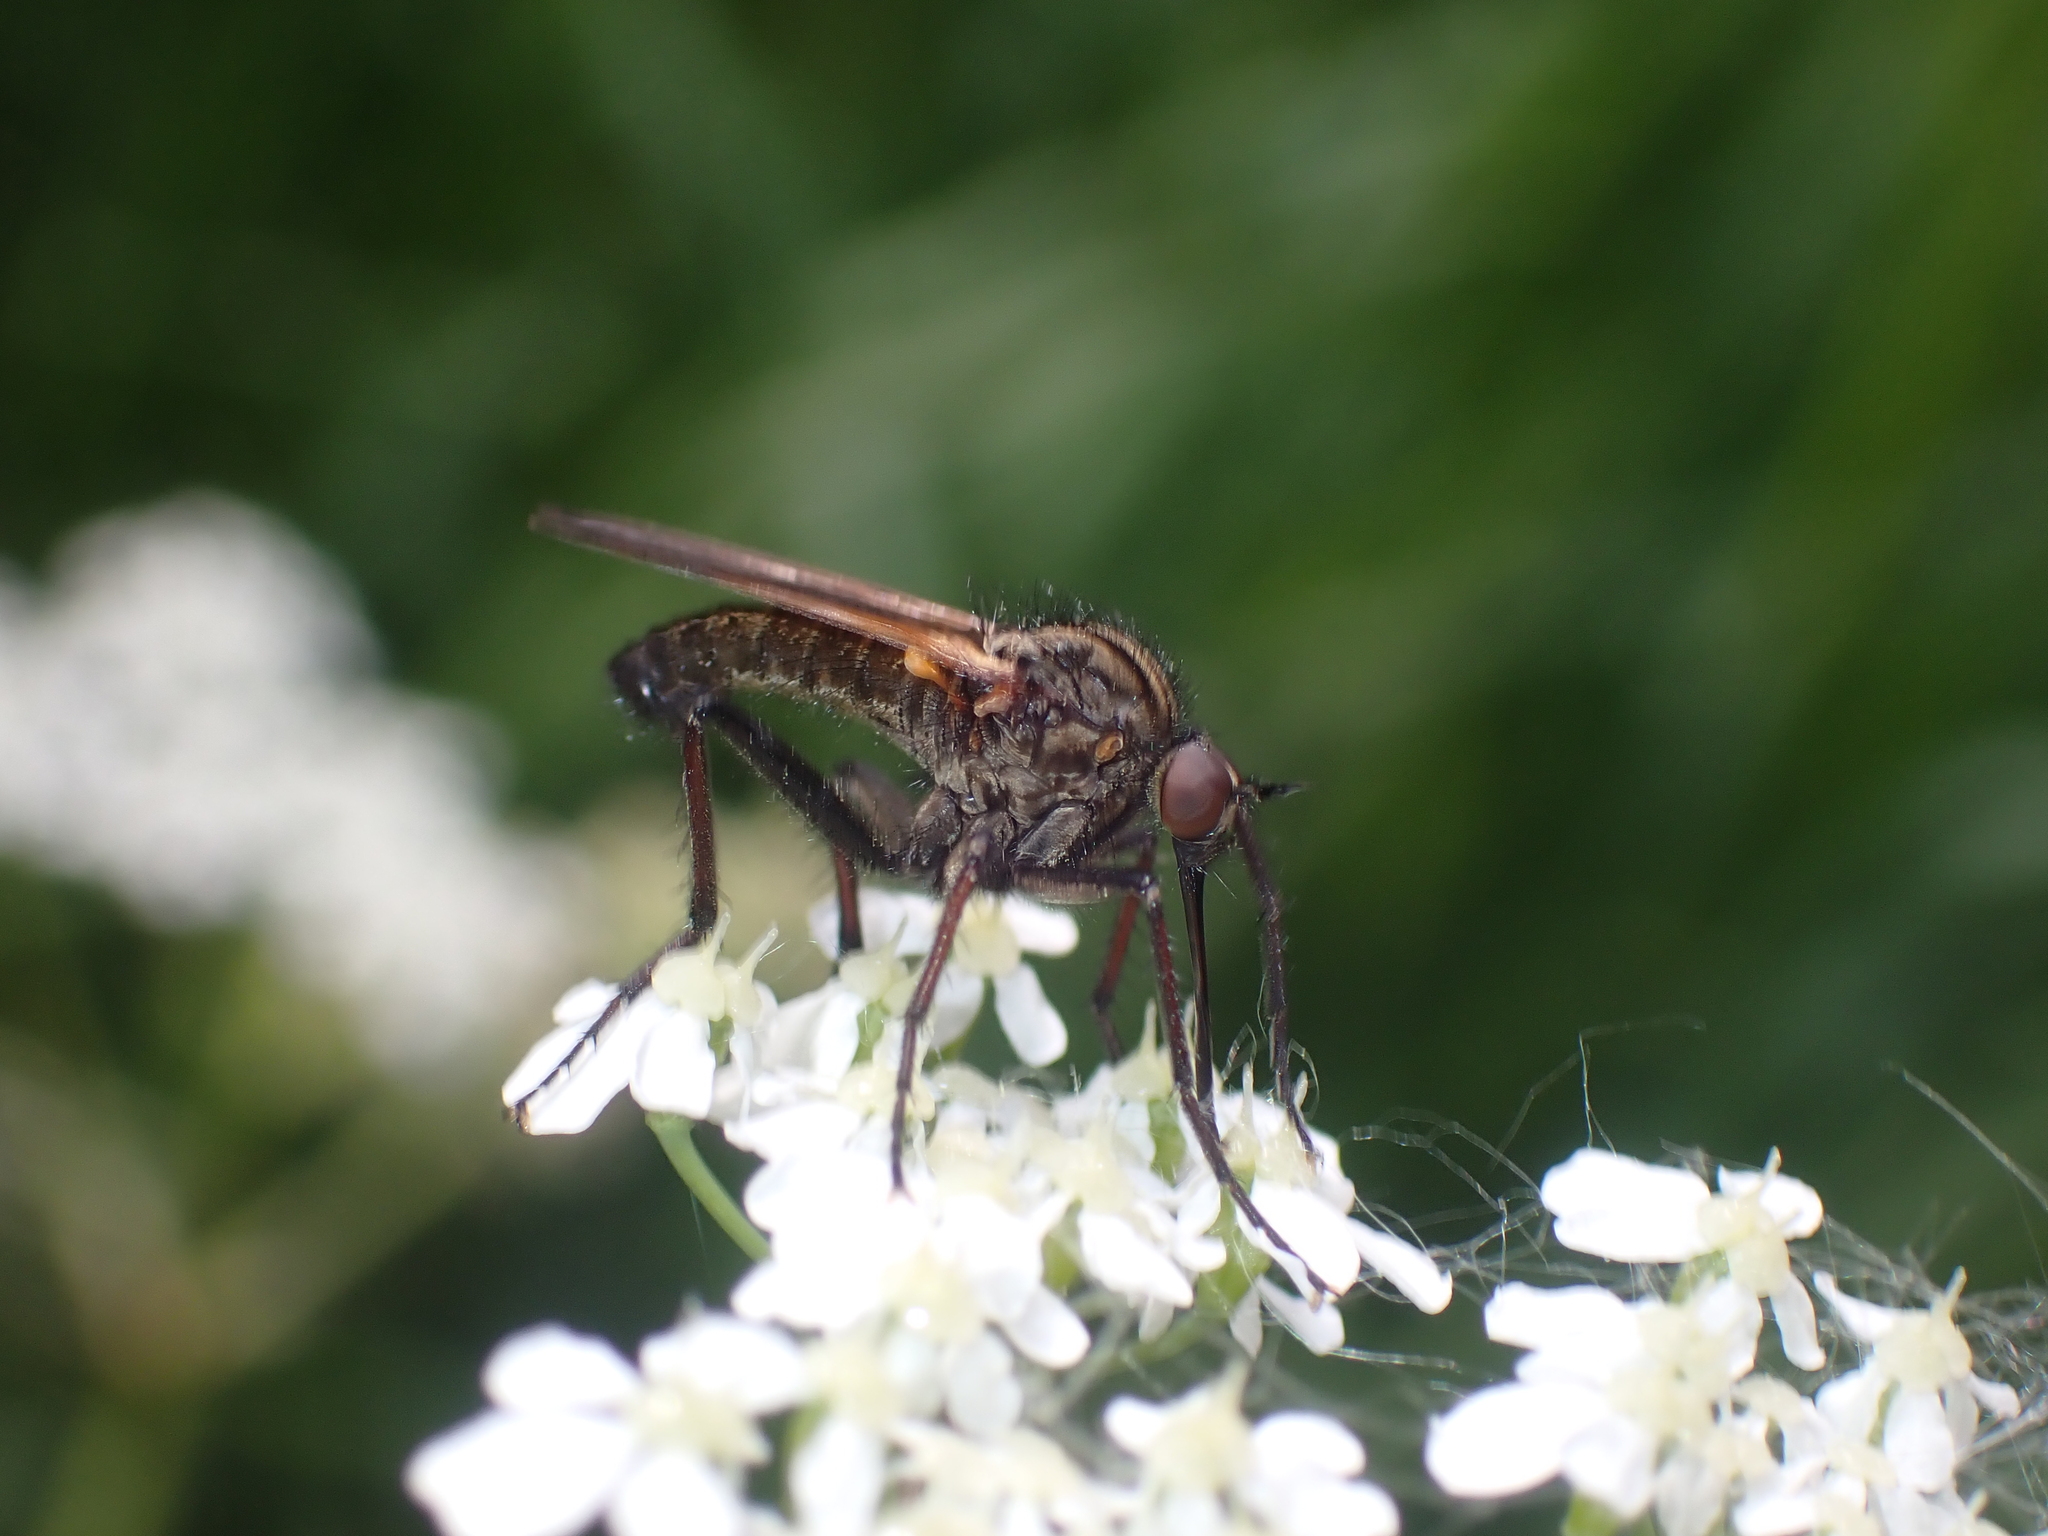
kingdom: Animalia
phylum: Arthropoda
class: Insecta
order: Diptera
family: Empididae
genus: Empis
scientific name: Empis tessellata
